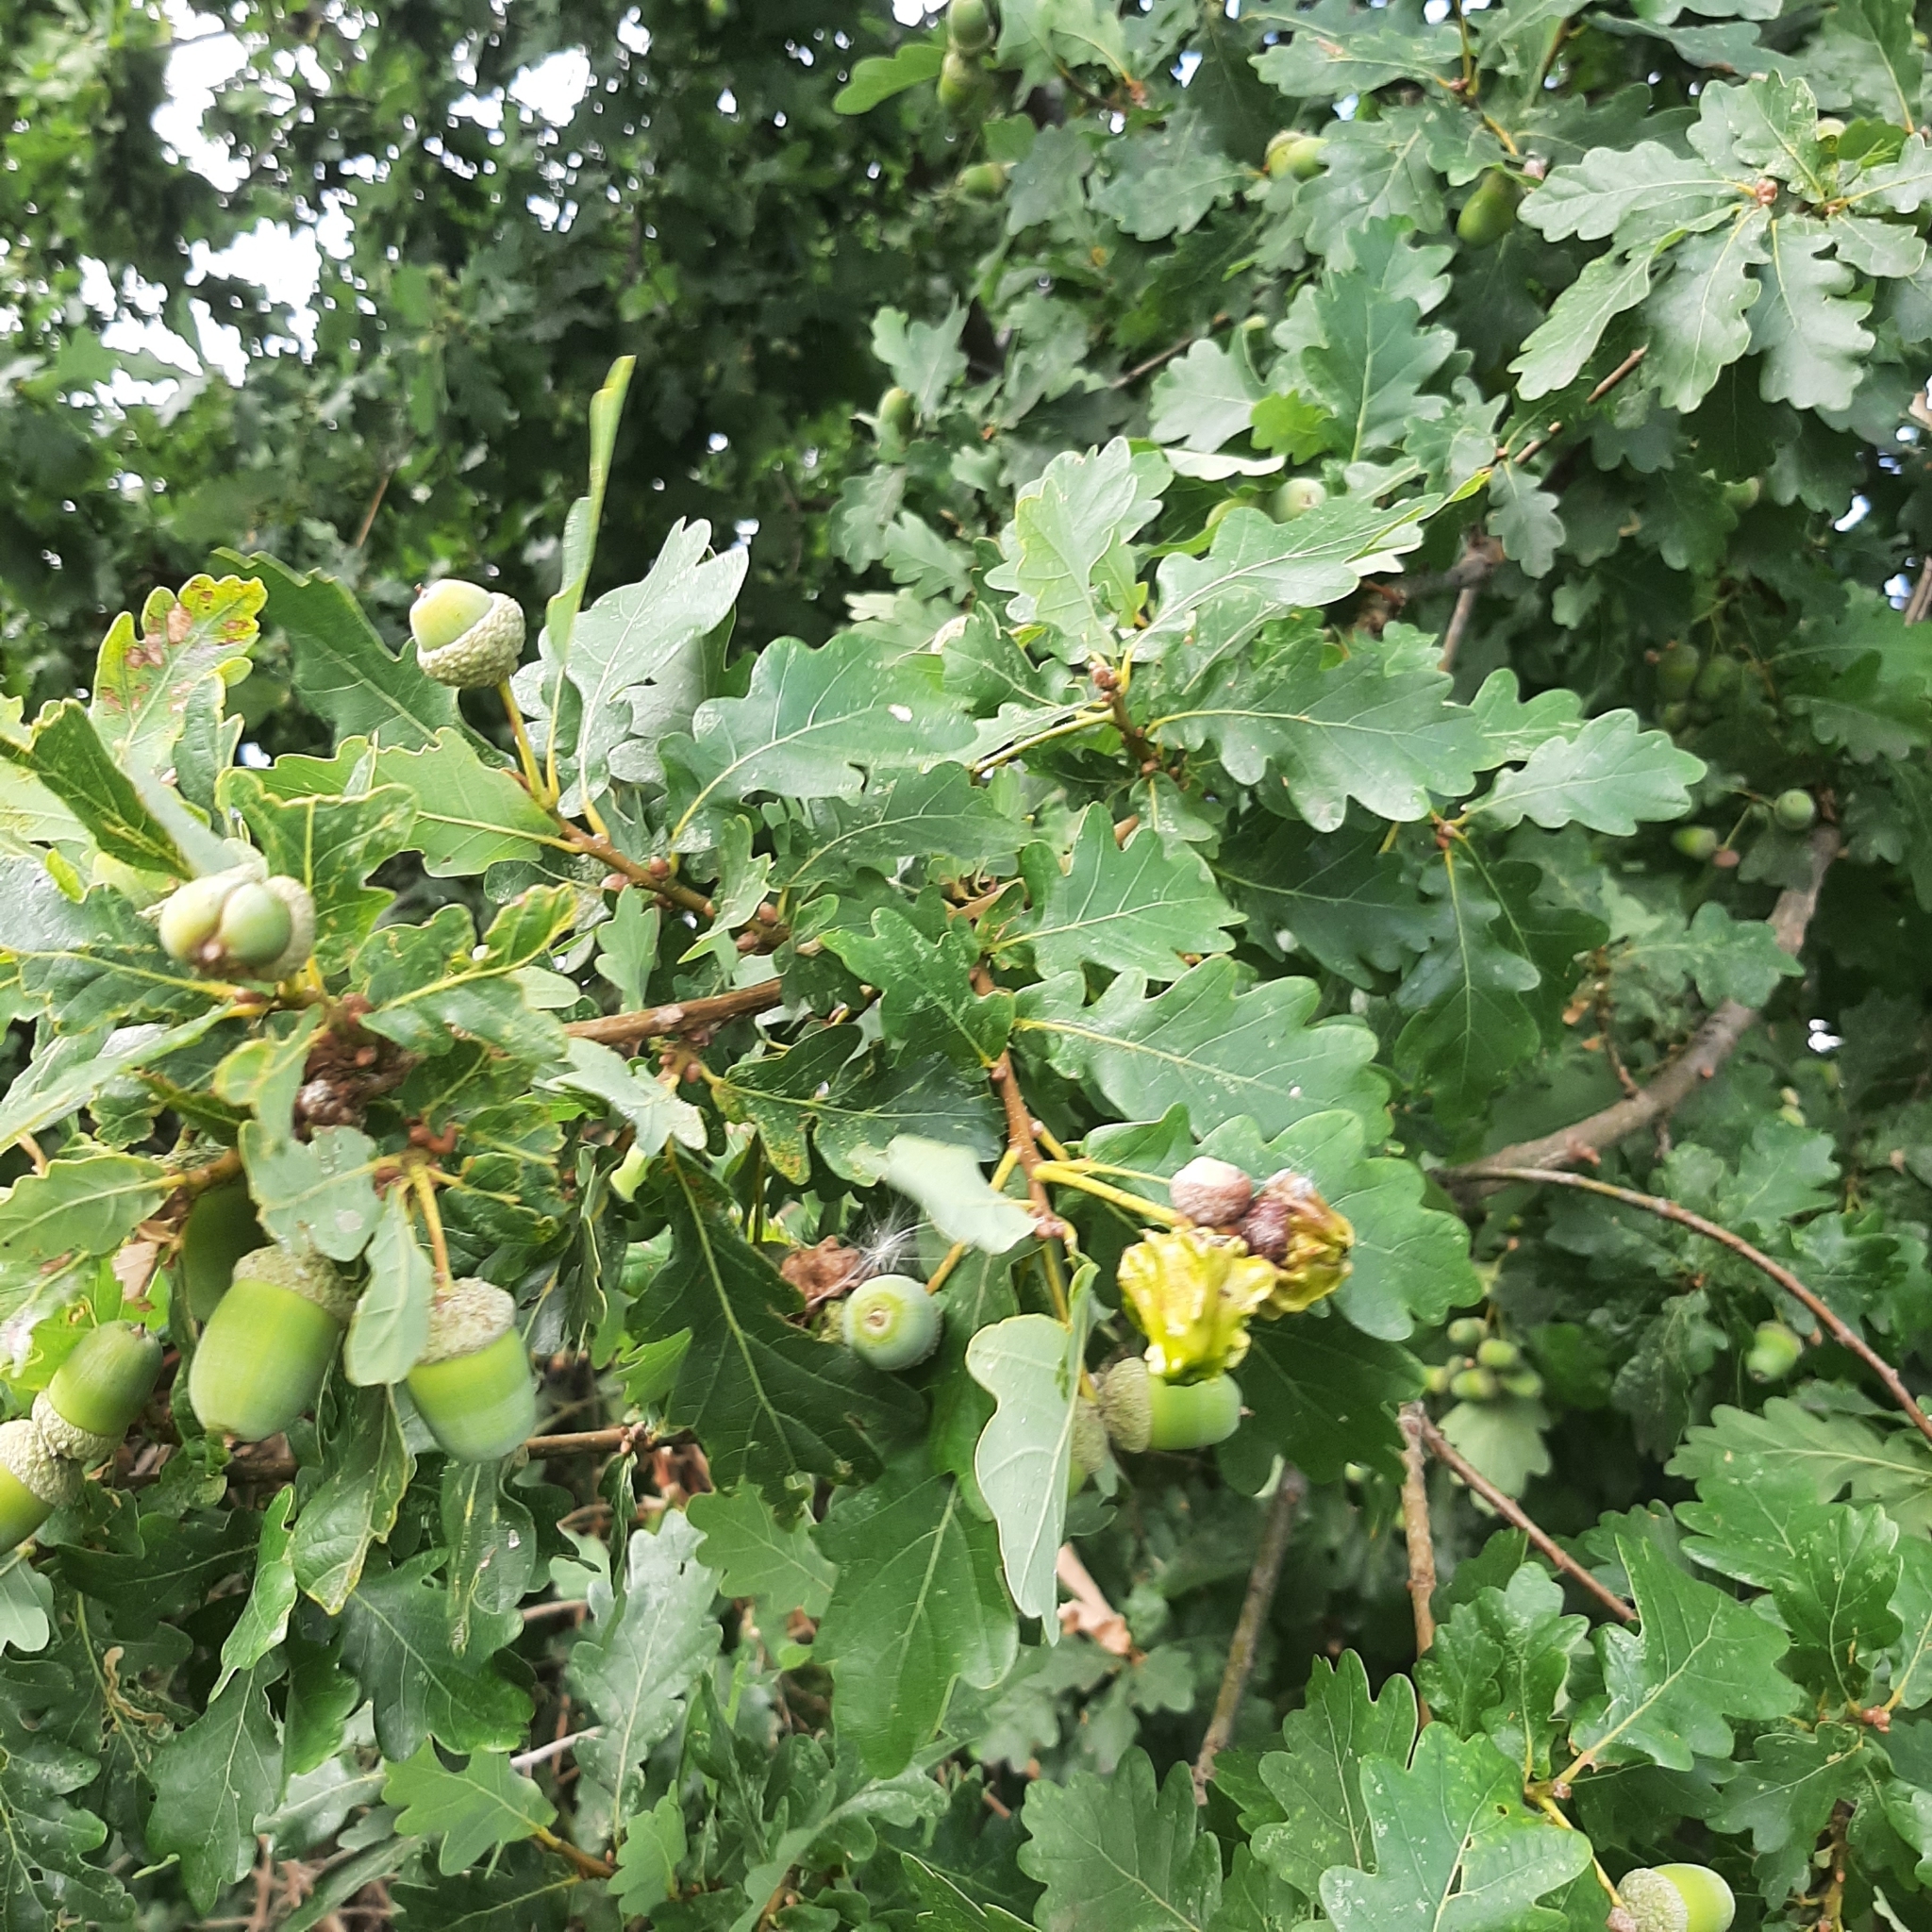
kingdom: Plantae
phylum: Tracheophyta
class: Magnoliopsida
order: Fagales
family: Fagaceae
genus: Quercus
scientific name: Quercus robur
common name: Pedunculate oak
